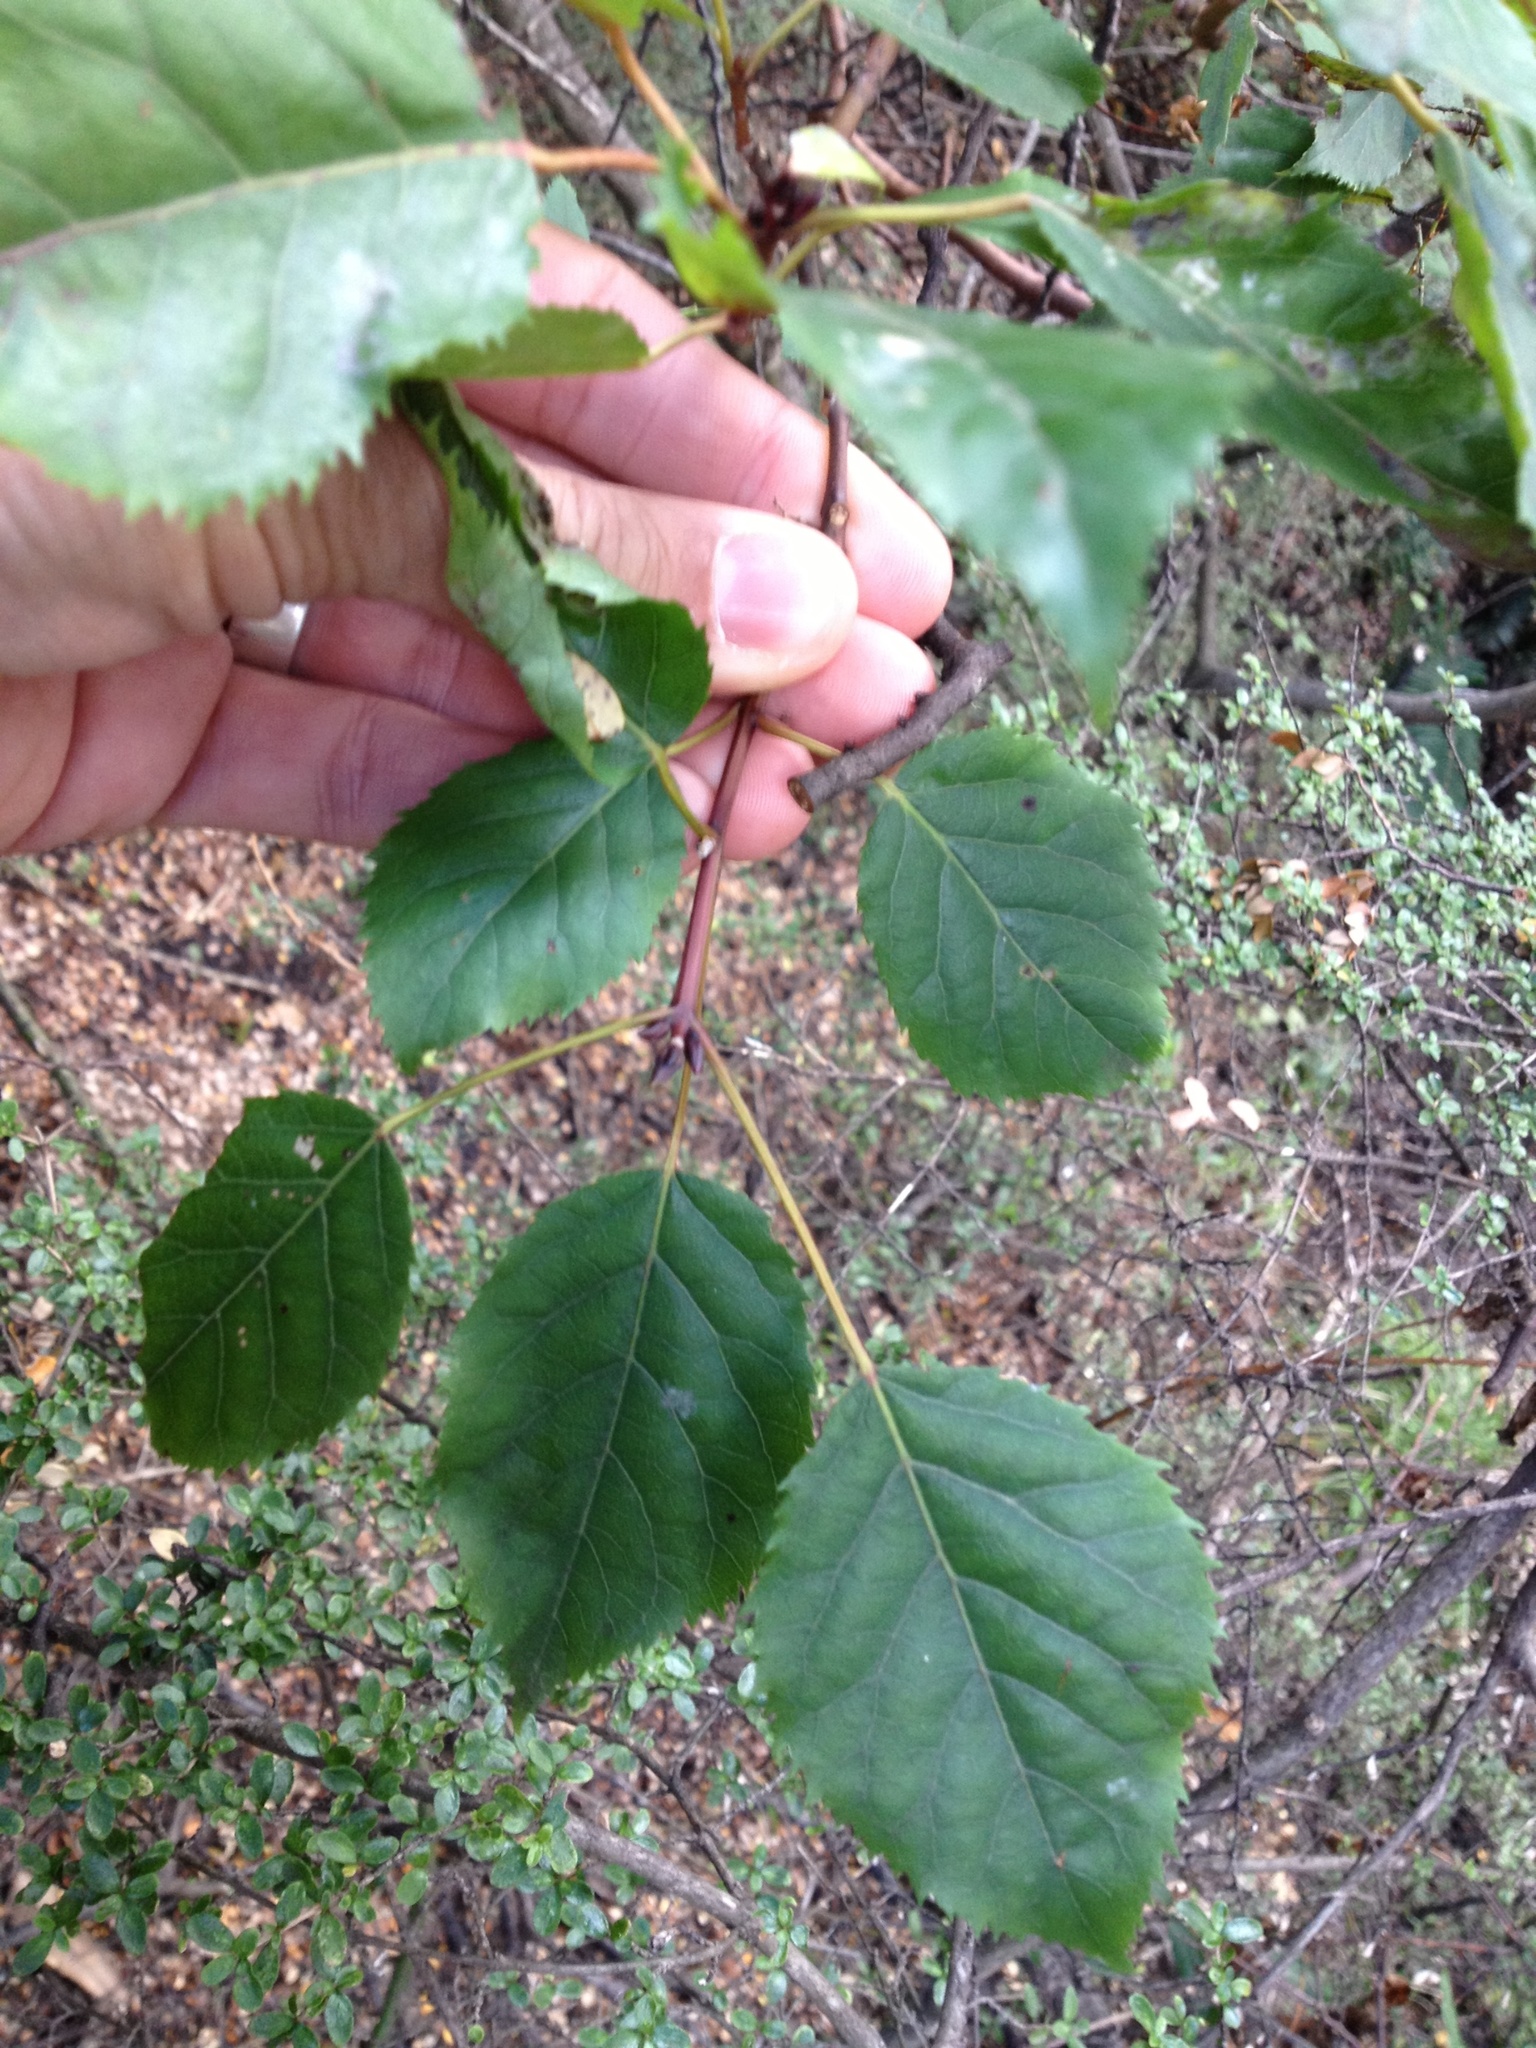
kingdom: Plantae
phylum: Tracheophyta
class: Magnoliopsida
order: Oxalidales
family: Elaeocarpaceae
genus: Aristotelia
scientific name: Aristotelia serrata
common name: New zealand wineberry
